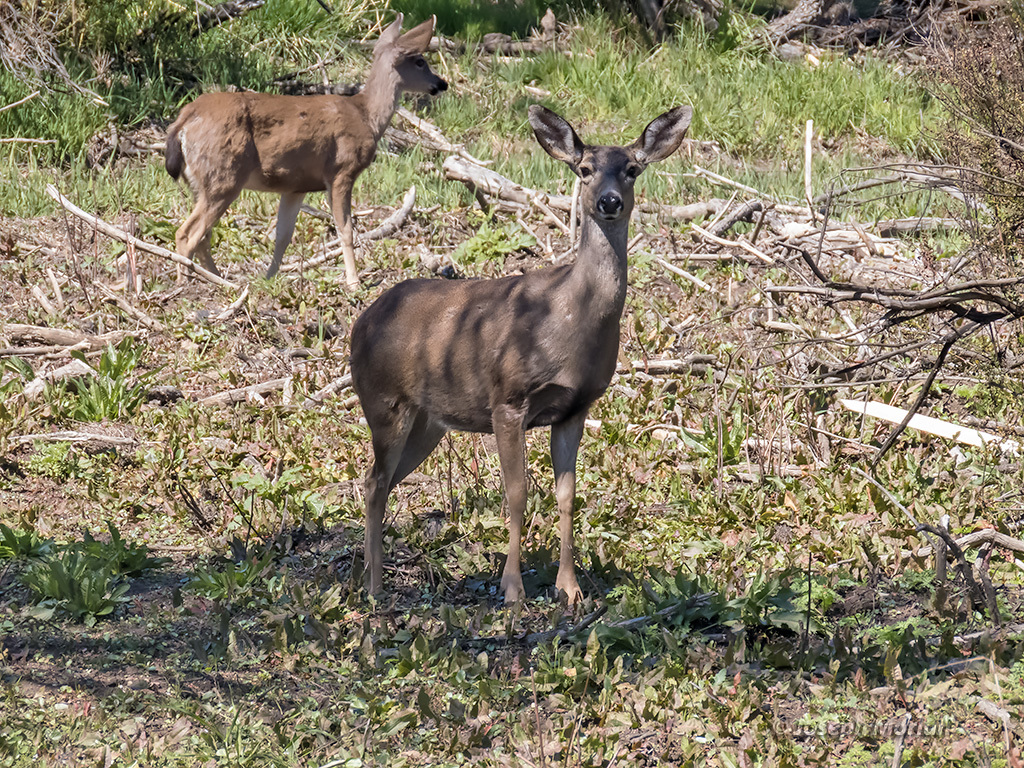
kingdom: Animalia
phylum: Chordata
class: Mammalia
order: Artiodactyla
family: Cervidae
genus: Odocoileus
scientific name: Odocoileus hemionus
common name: Mule deer
